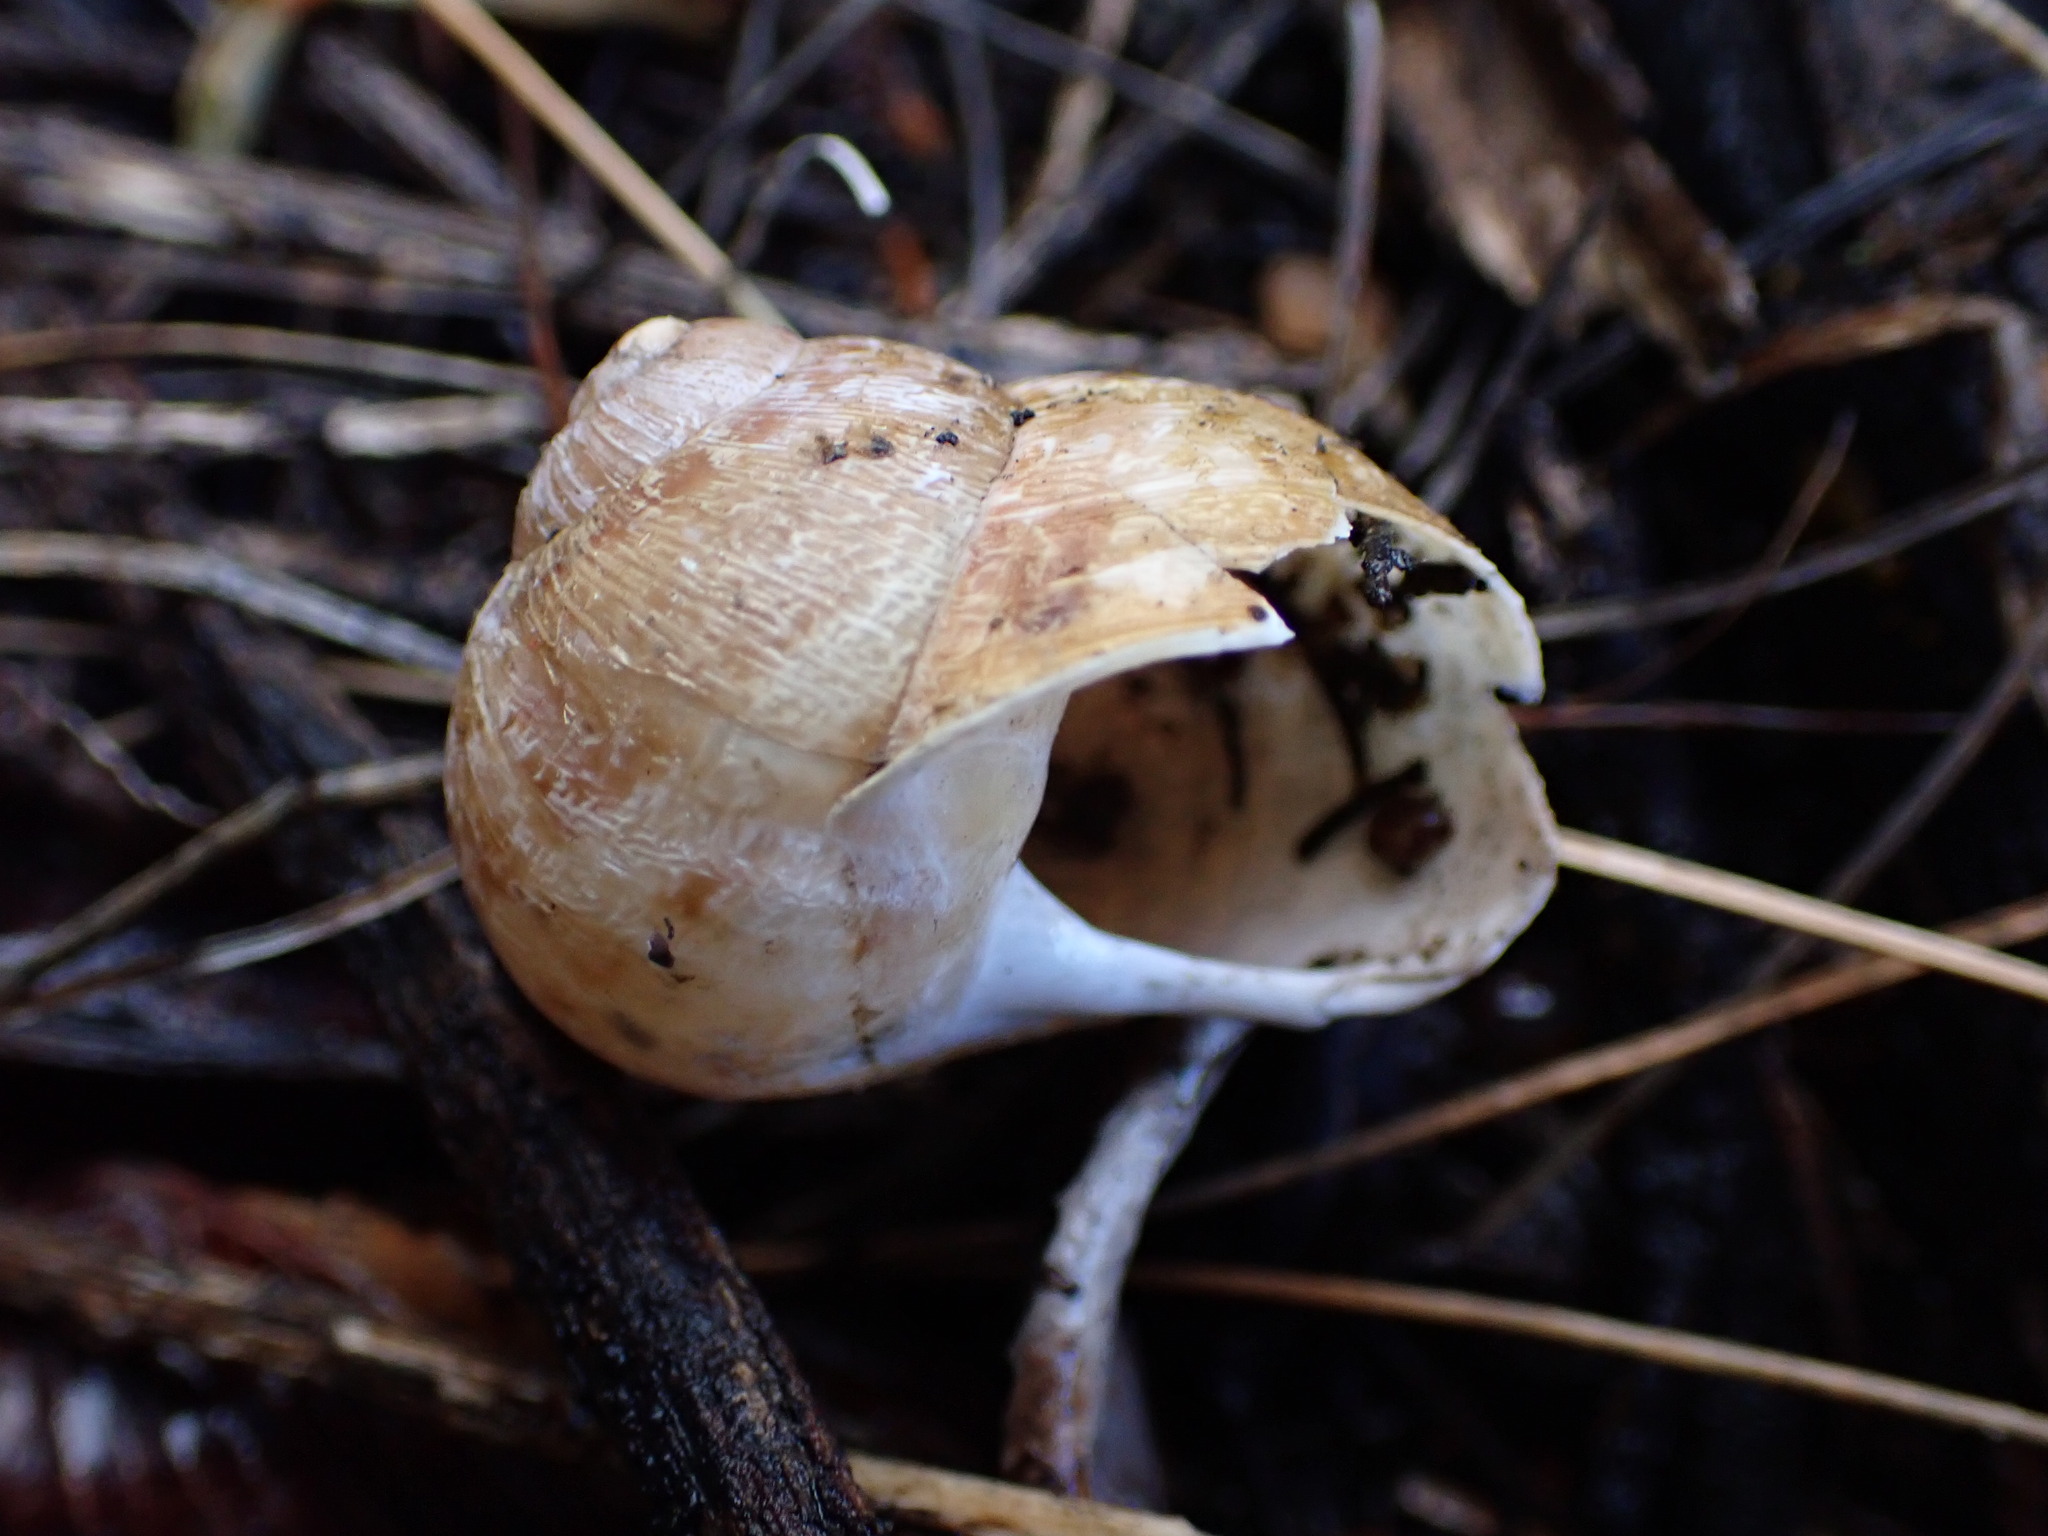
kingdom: Animalia
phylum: Mollusca
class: Gastropoda
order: Stylommatophora
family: Helicidae
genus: Cornu
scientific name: Cornu aspersum
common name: Brown garden snail
